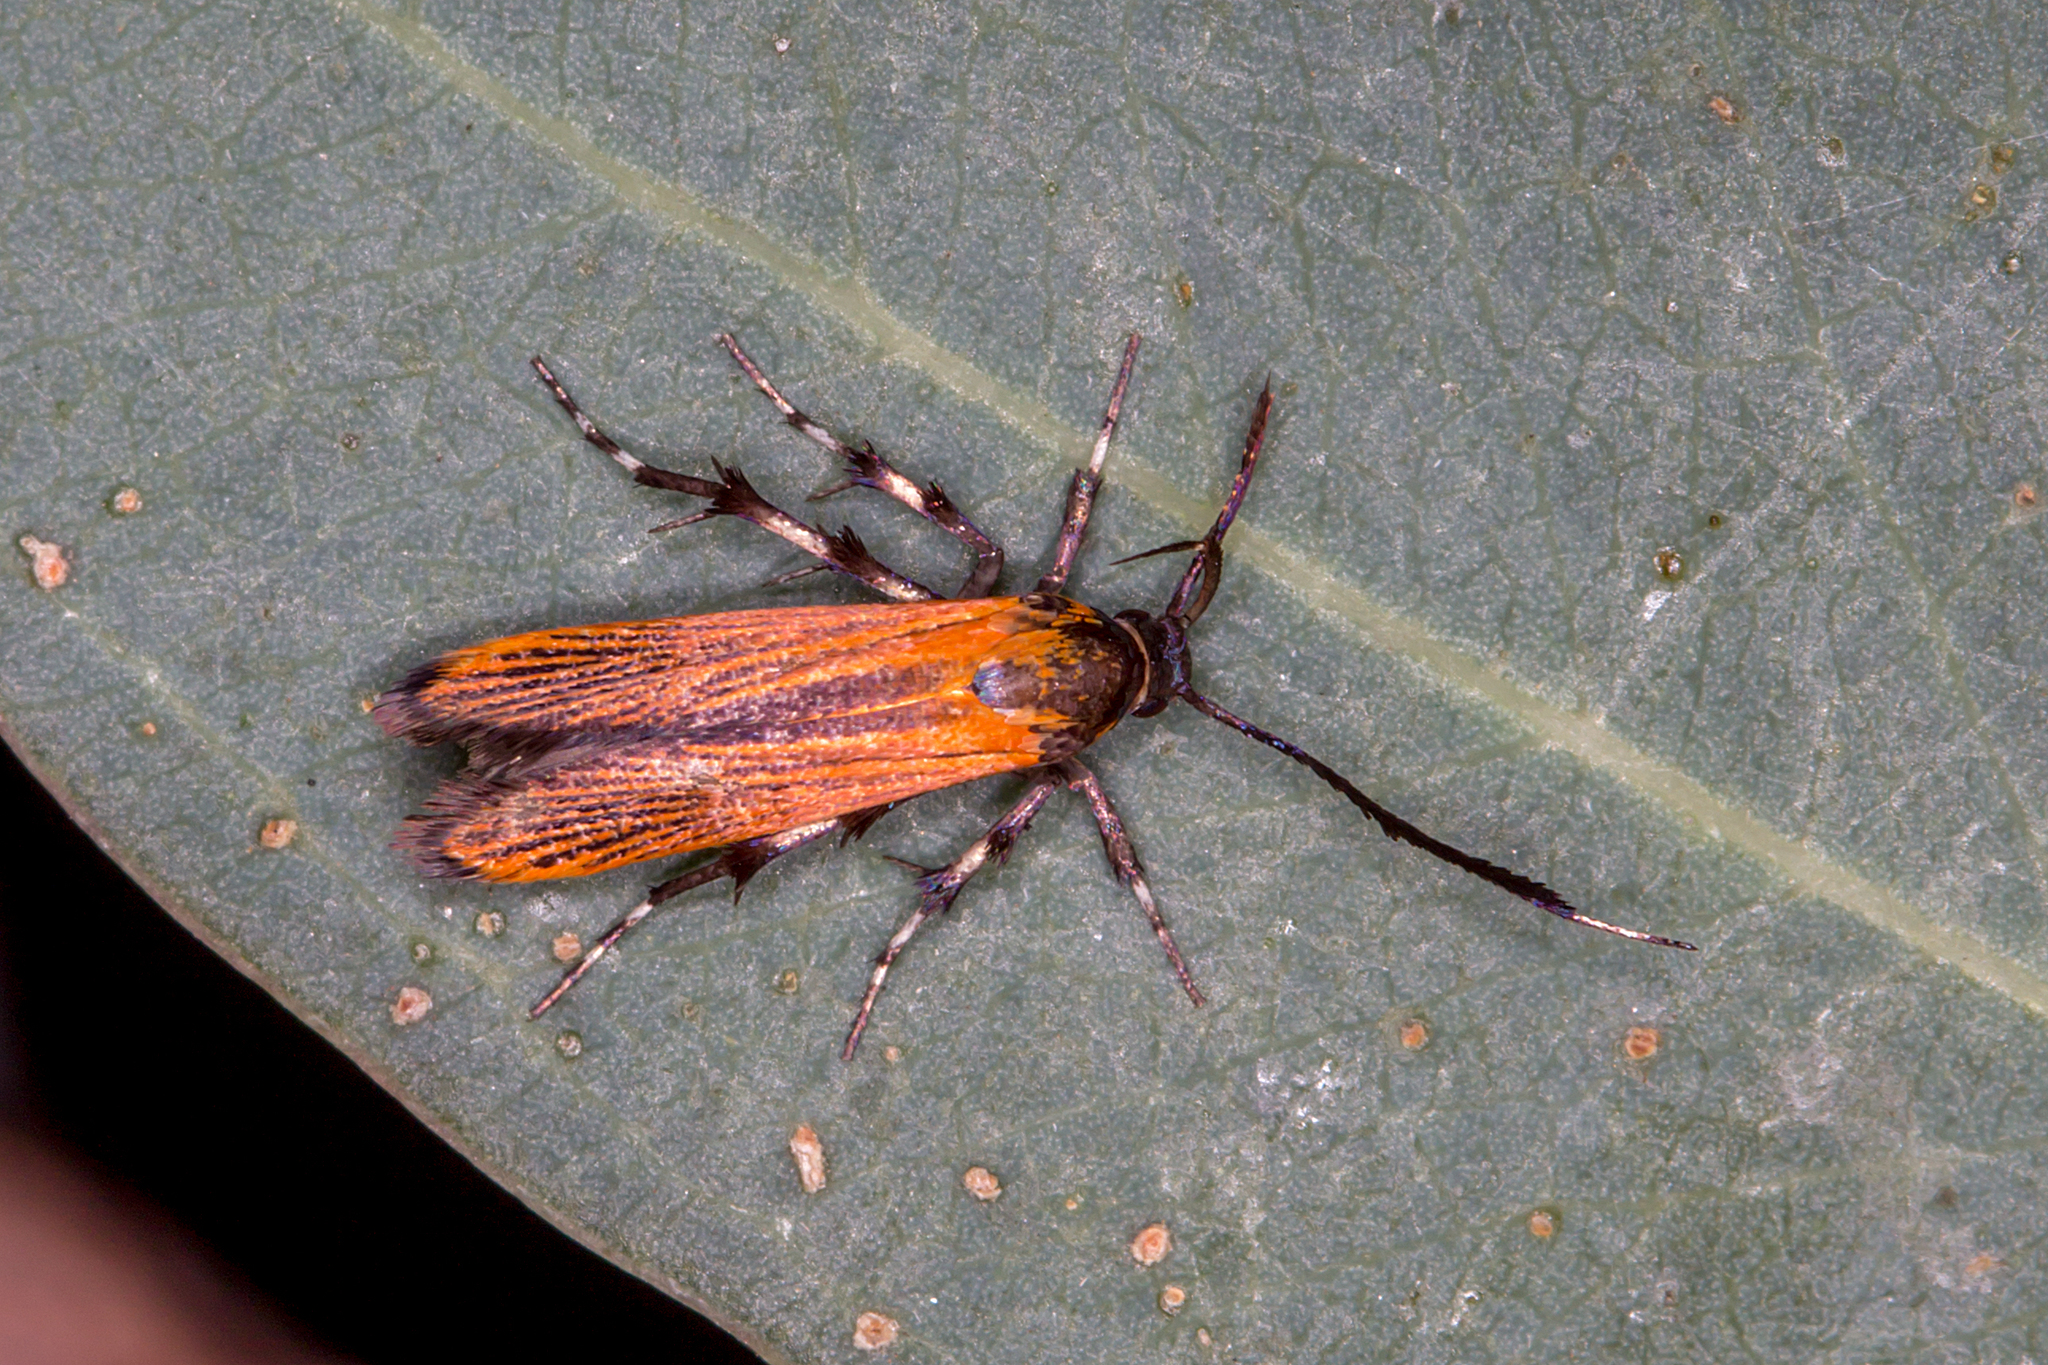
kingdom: Animalia
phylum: Arthropoda
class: Insecta
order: Lepidoptera
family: Stathmopodidae
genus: Snellenia
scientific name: Snellenia lineata
